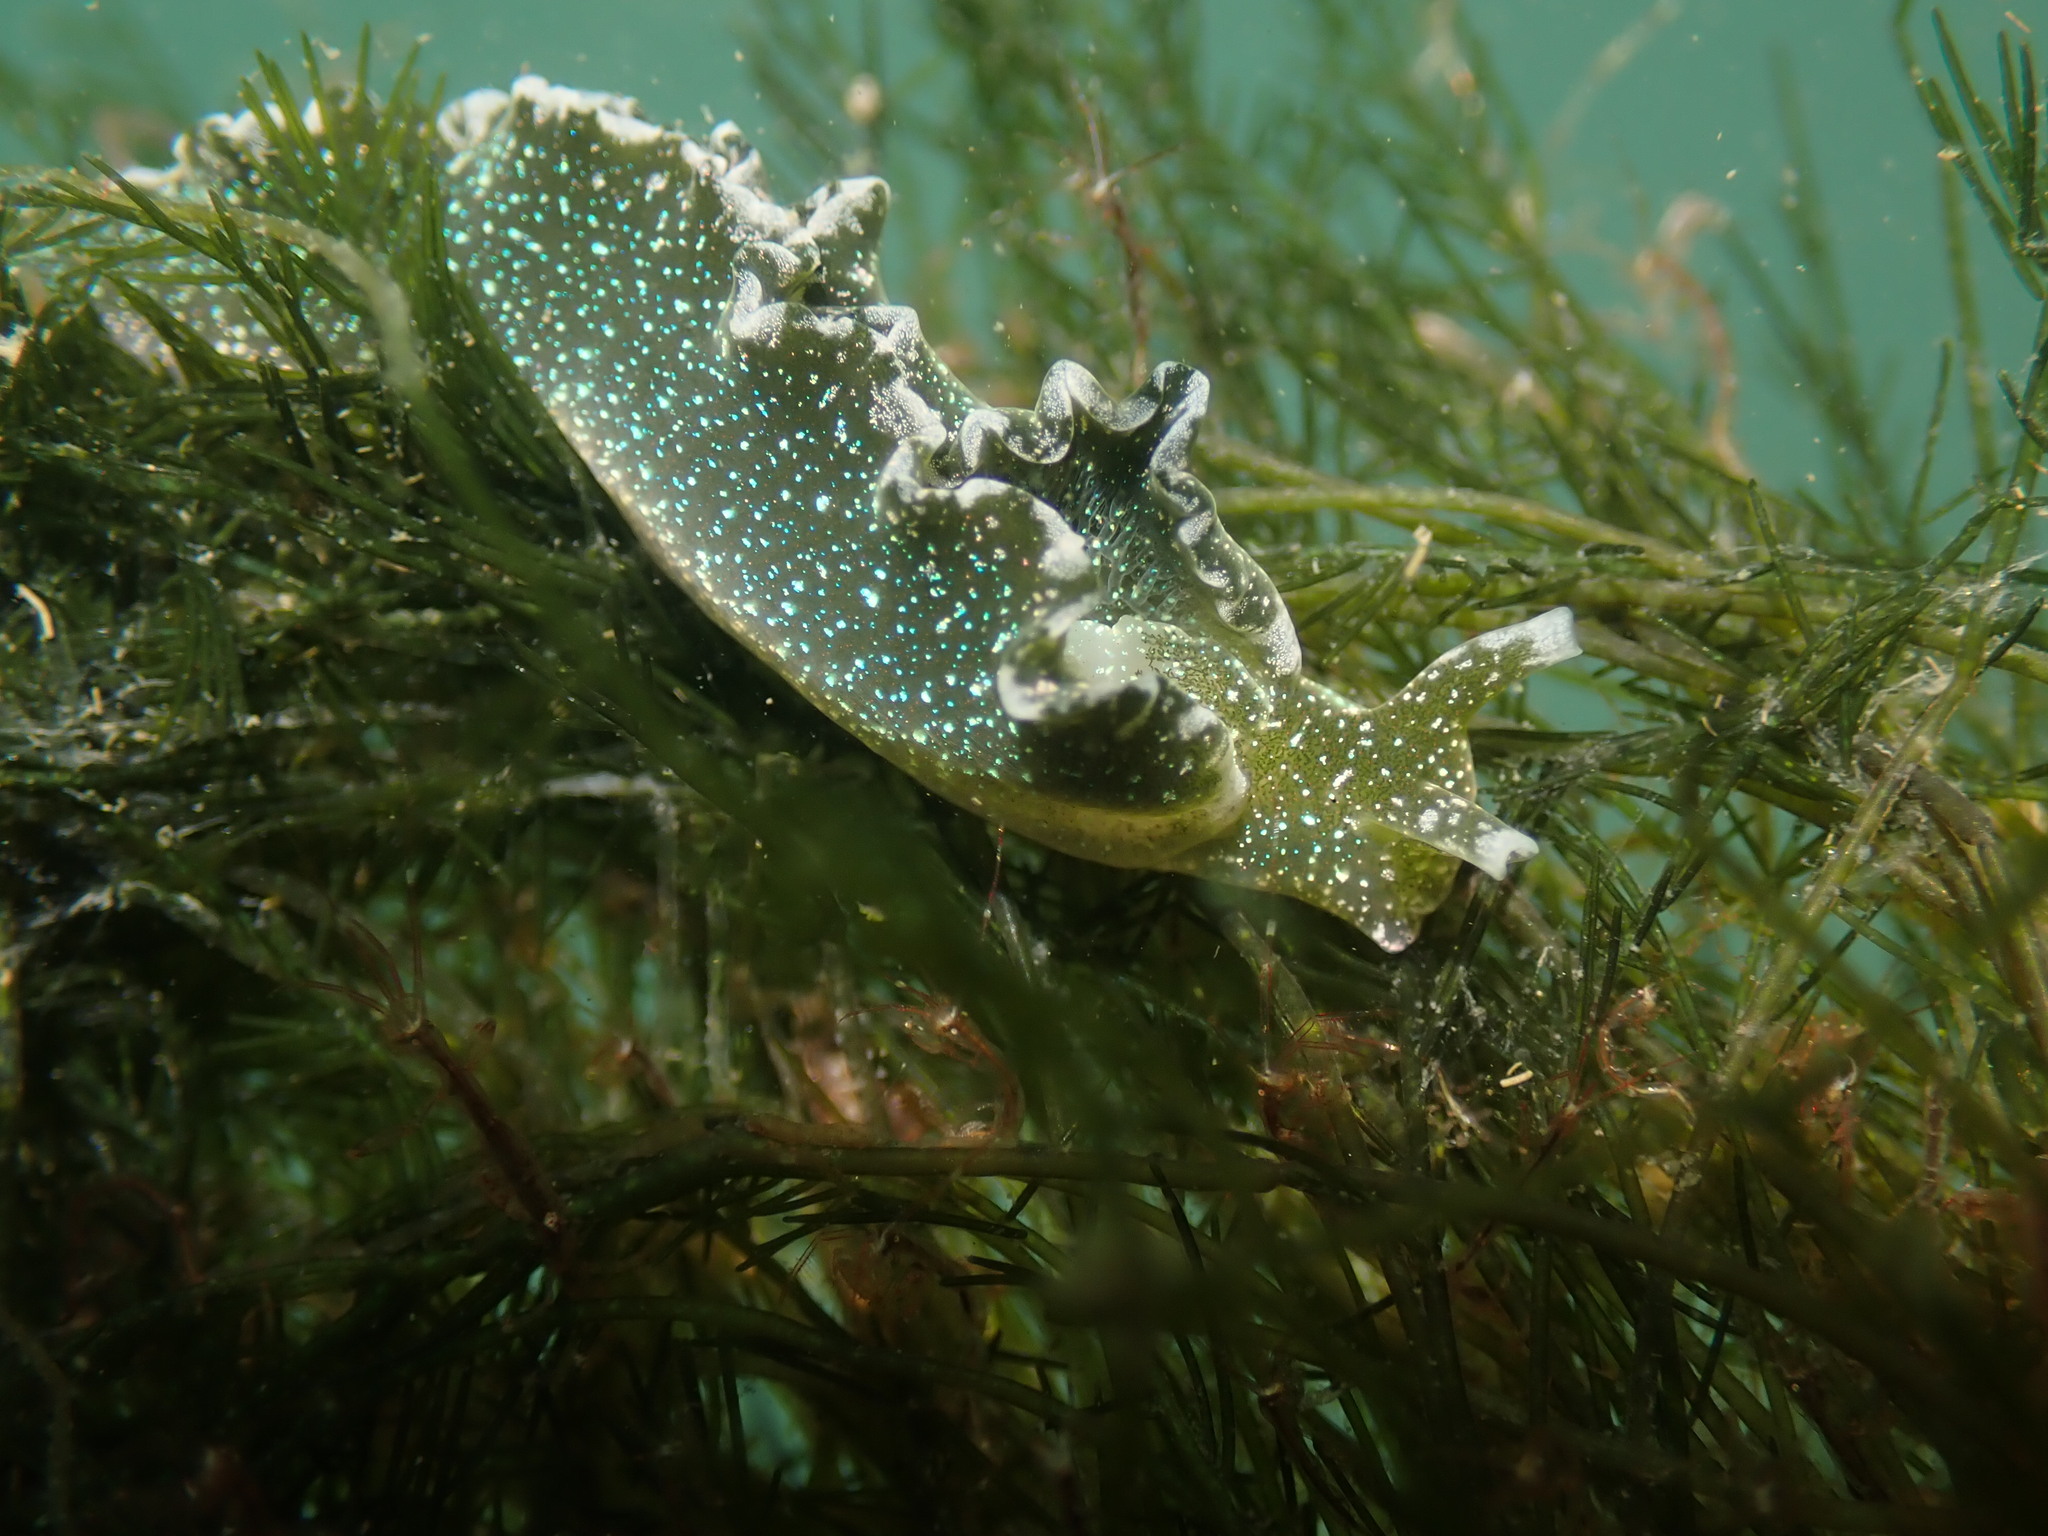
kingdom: Animalia
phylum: Mollusca
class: Gastropoda
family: Plakobranchidae
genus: Elysia
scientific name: Elysia hedgpethi
